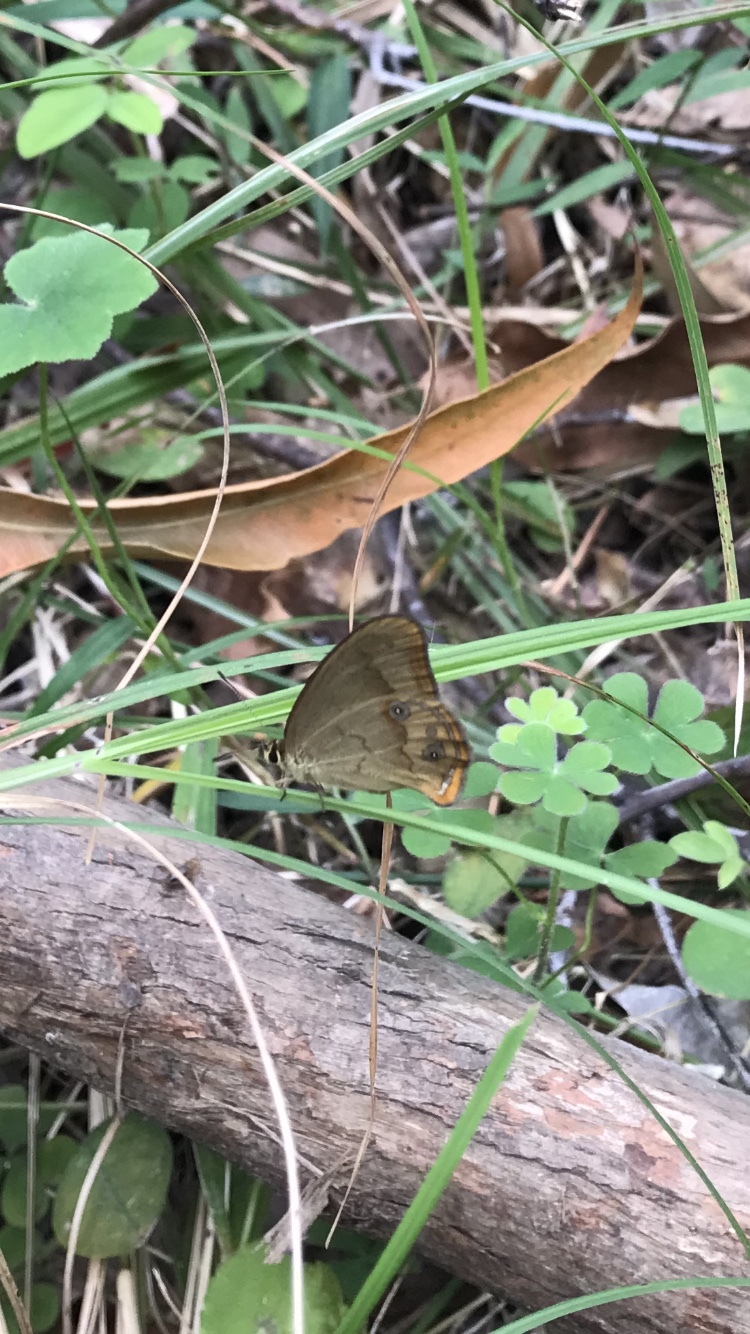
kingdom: Animalia
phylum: Arthropoda
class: Insecta
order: Lepidoptera
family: Nymphalidae
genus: Hypocysta
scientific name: Hypocysta metirius
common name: Brown ringlet
